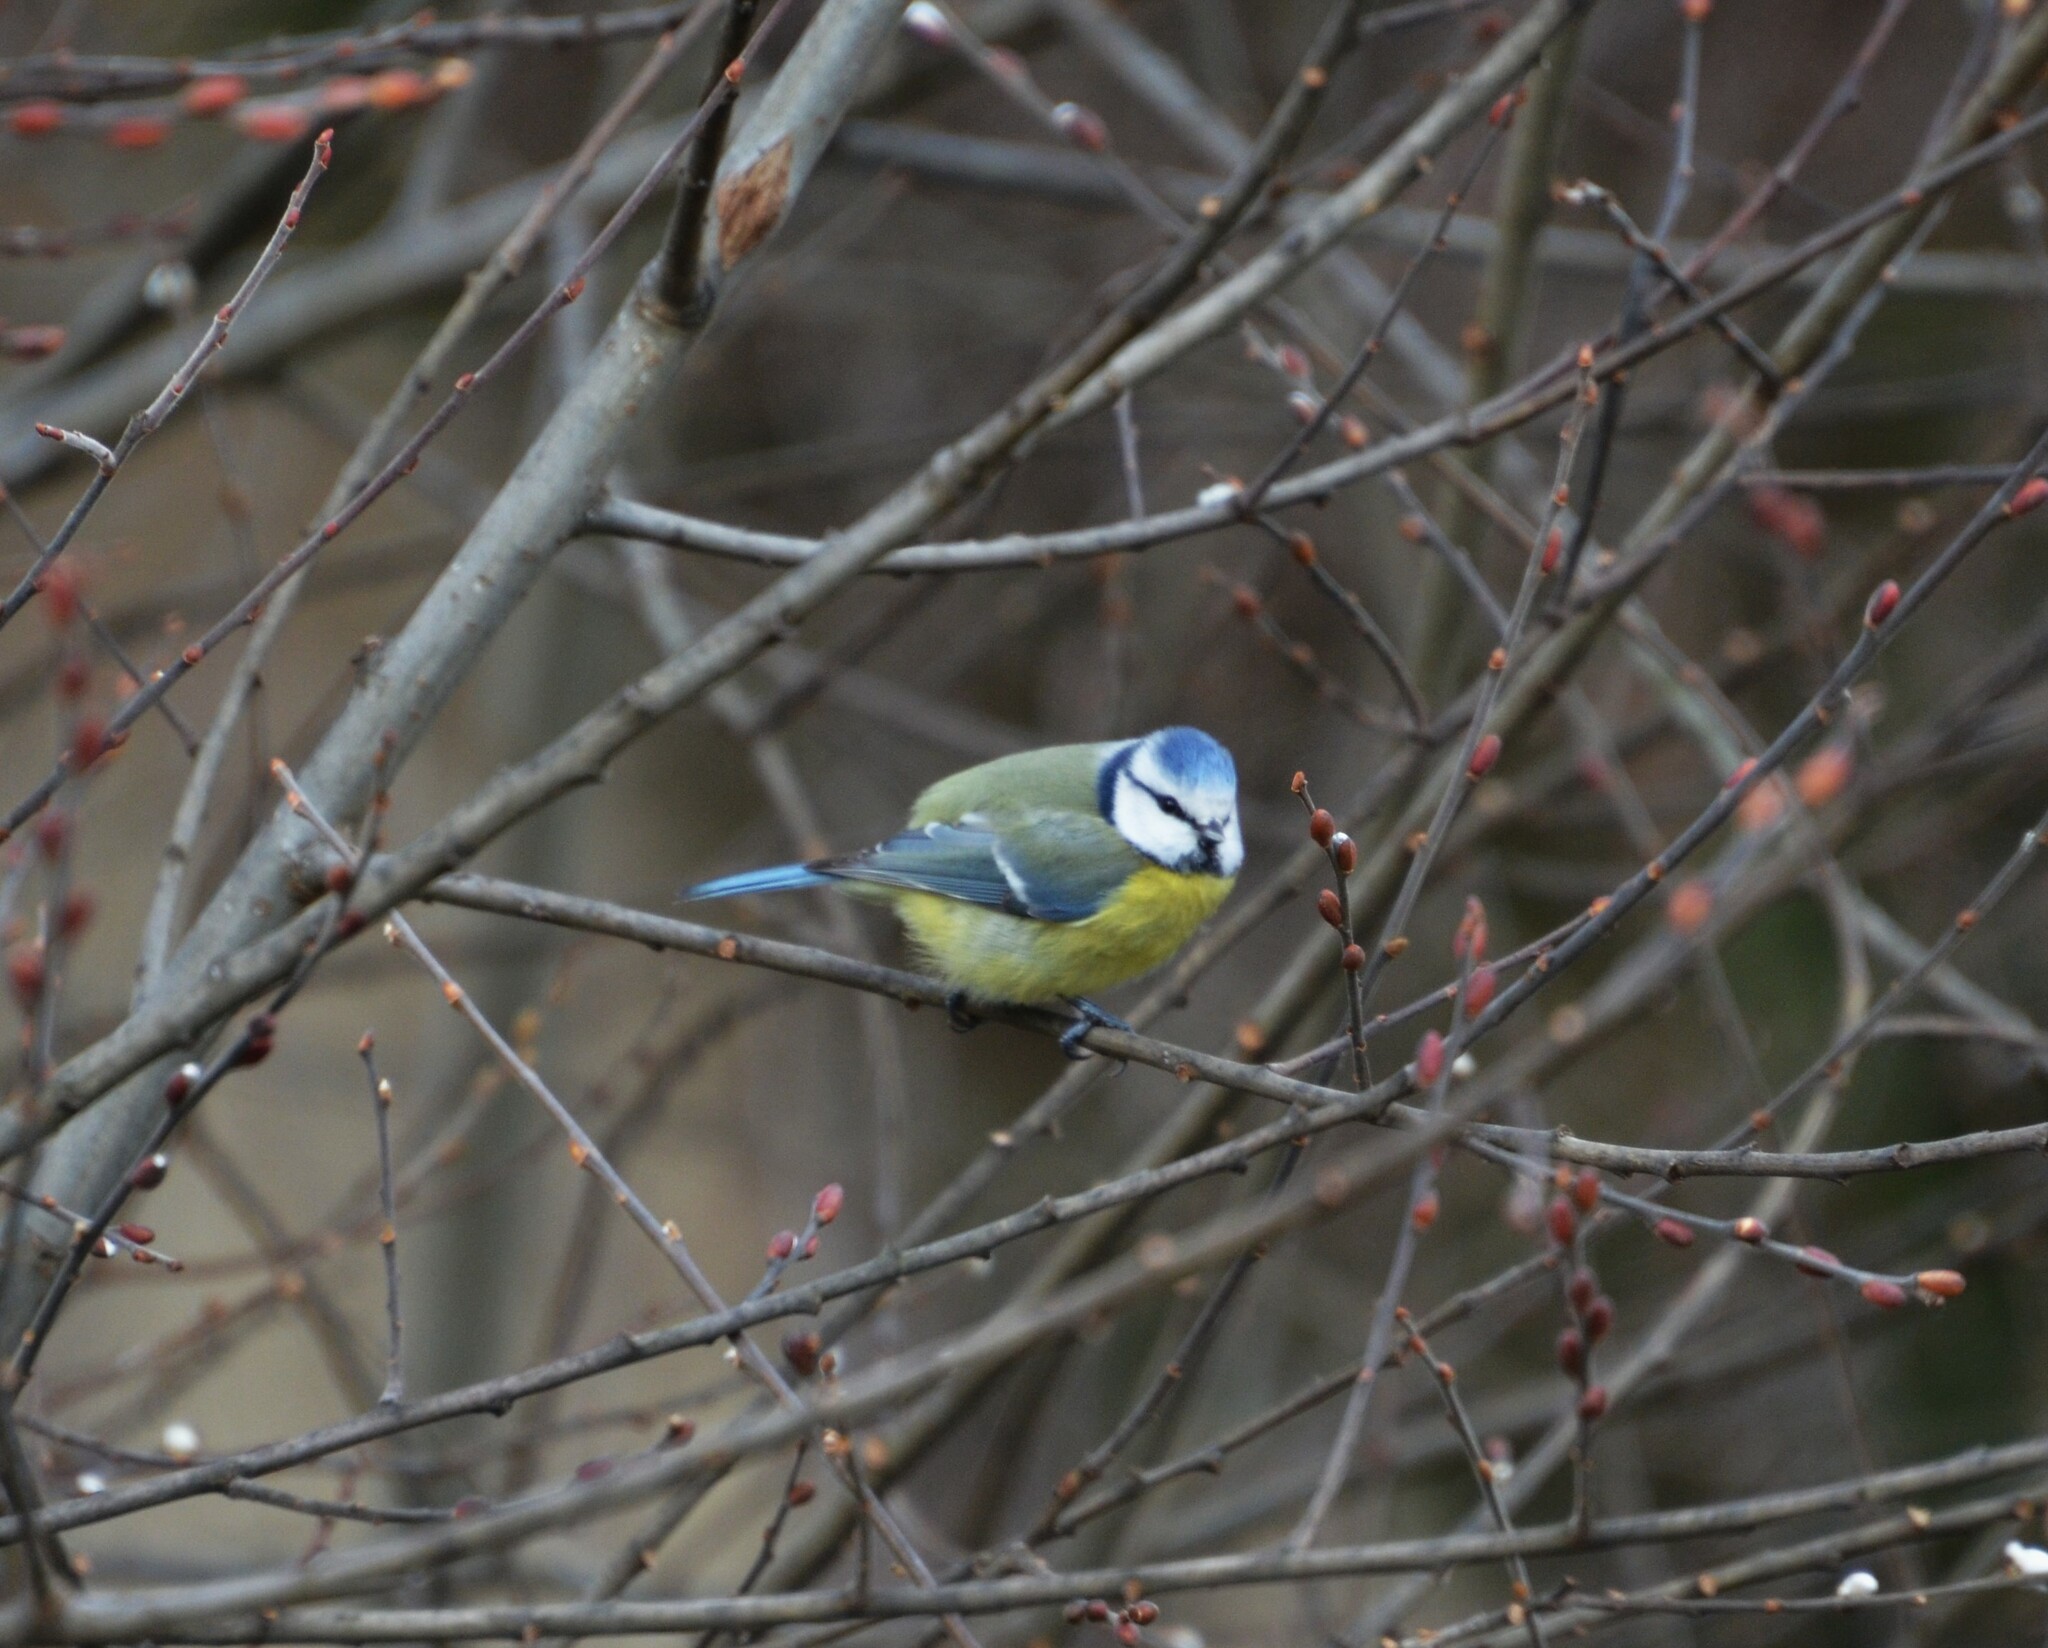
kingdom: Animalia
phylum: Chordata
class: Aves
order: Passeriformes
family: Paridae
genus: Cyanistes
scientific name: Cyanistes caeruleus
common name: Eurasian blue tit
